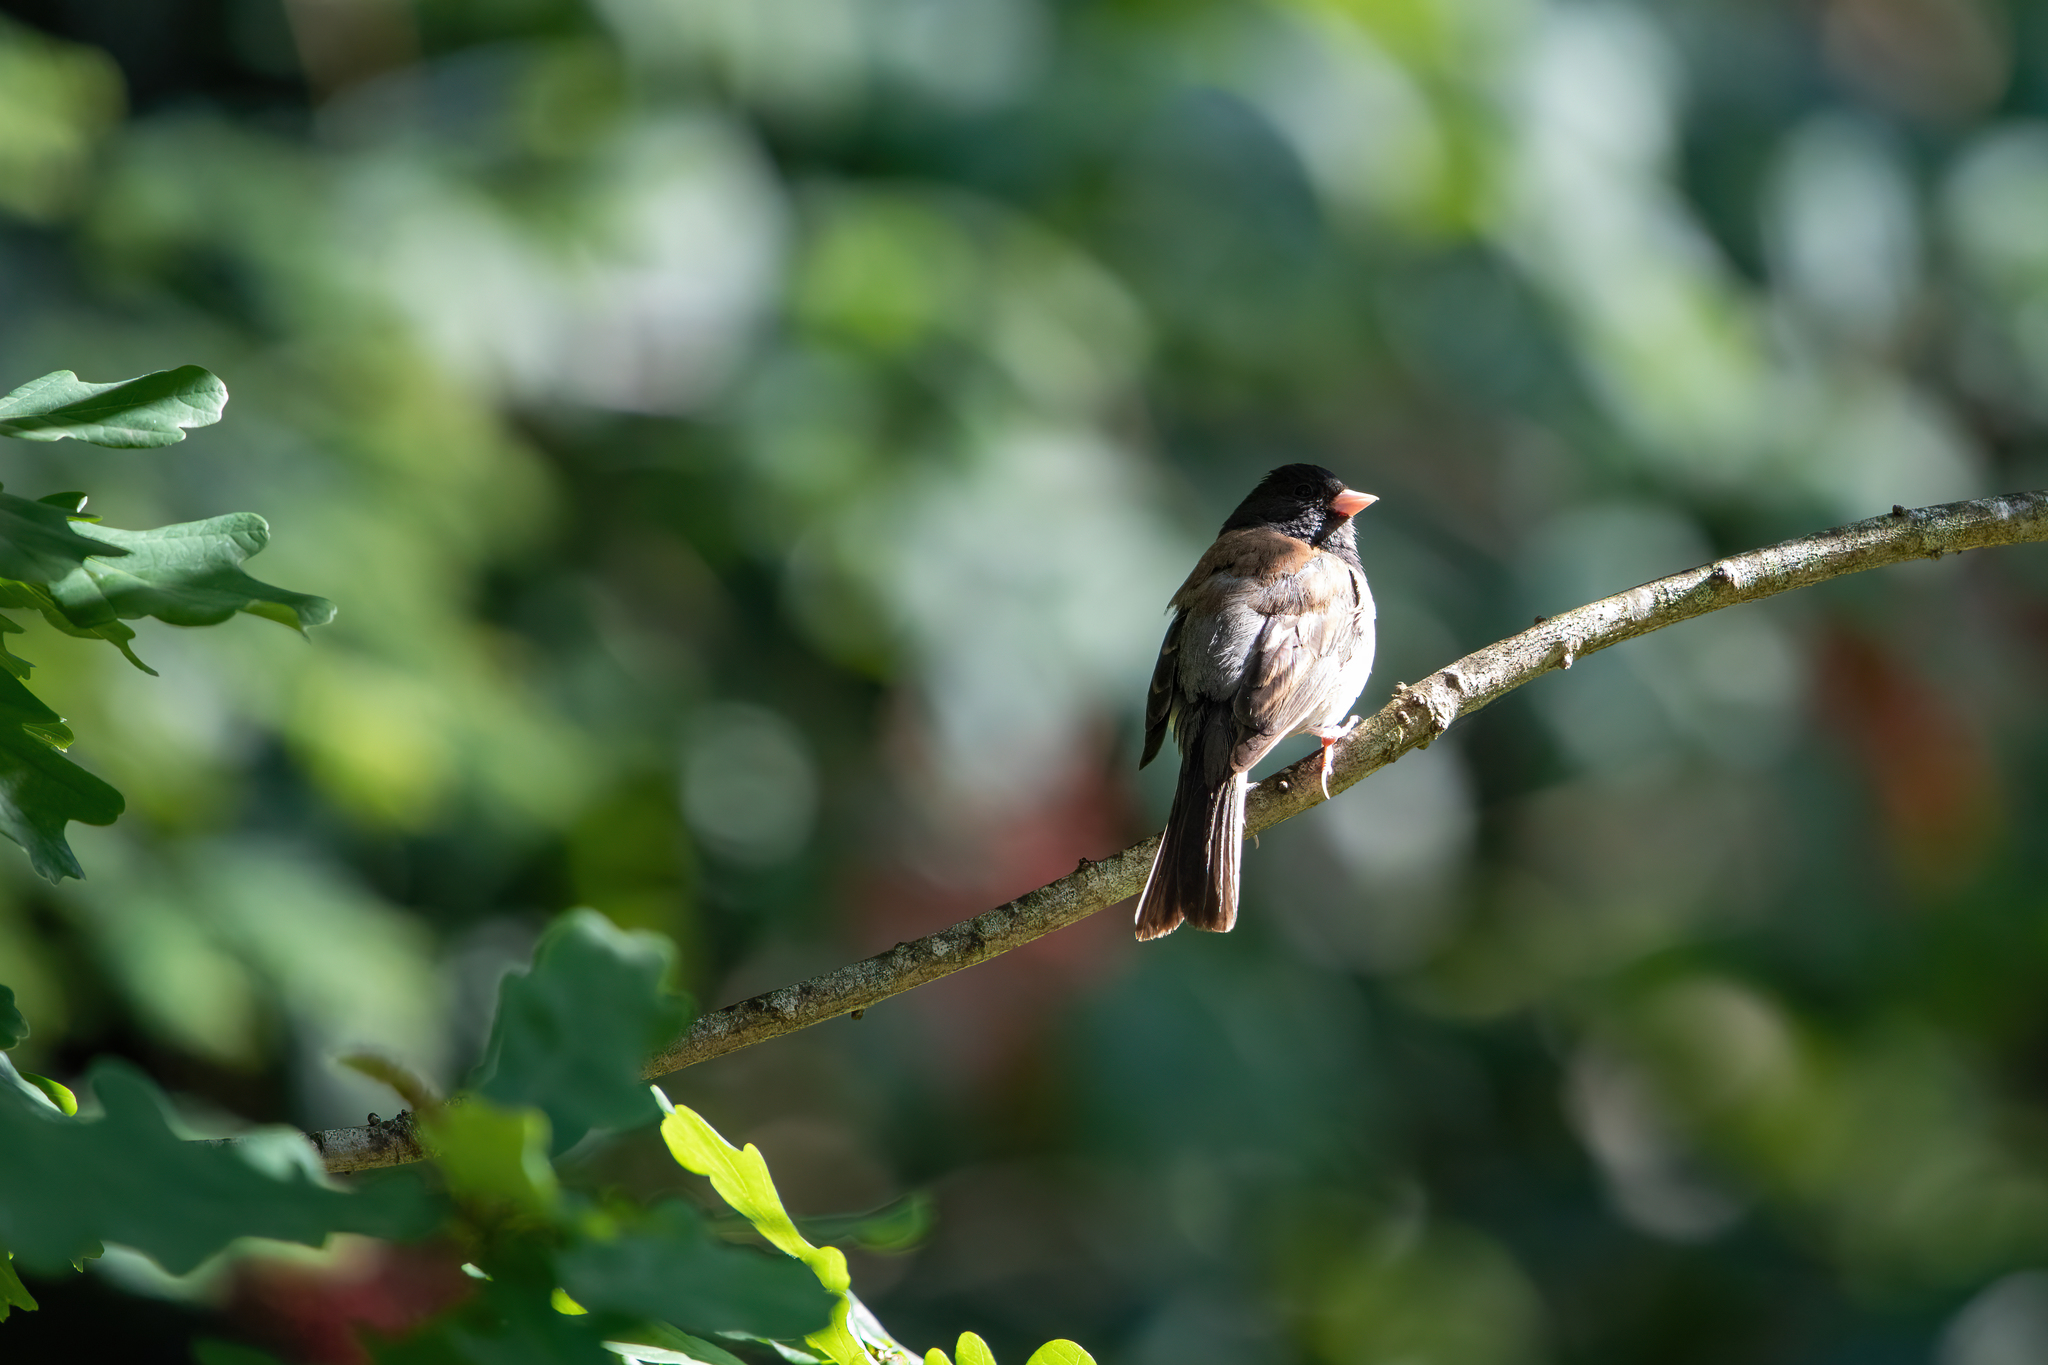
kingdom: Animalia
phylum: Chordata
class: Aves
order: Passeriformes
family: Passerellidae
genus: Junco
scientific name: Junco hyemalis
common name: Dark-eyed junco
